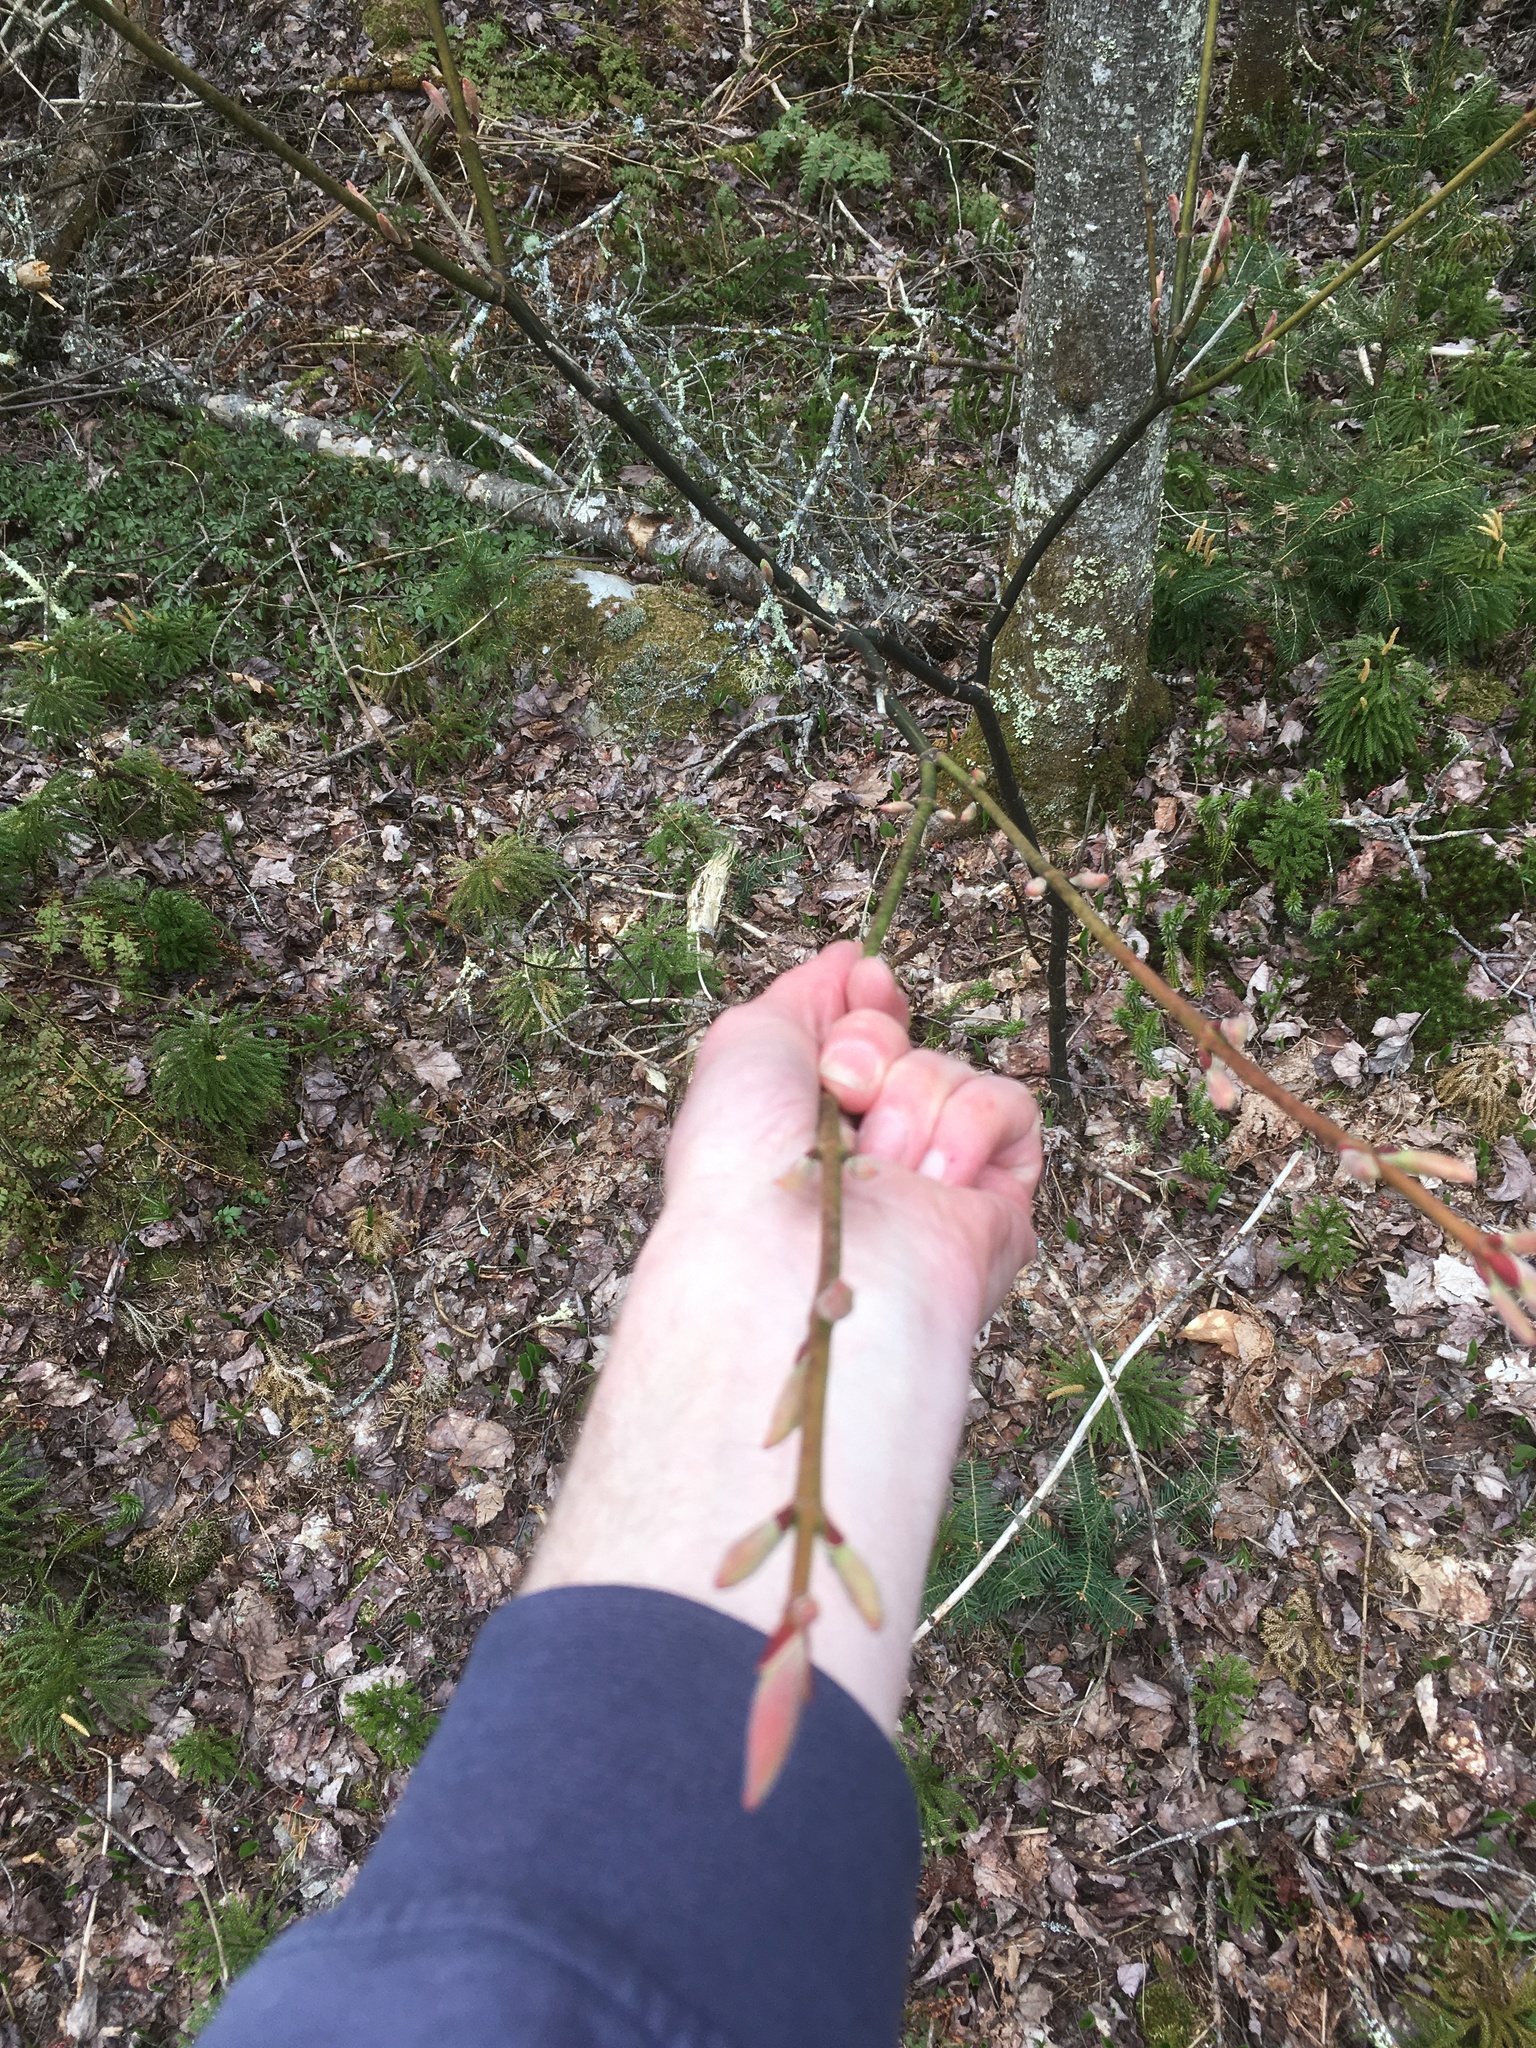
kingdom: Plantae
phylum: Tracheophyta
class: Magnoliopsida
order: Sapindales
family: Sapindaceae
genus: Acer
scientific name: Acer pensylvanicum
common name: Moosewood
